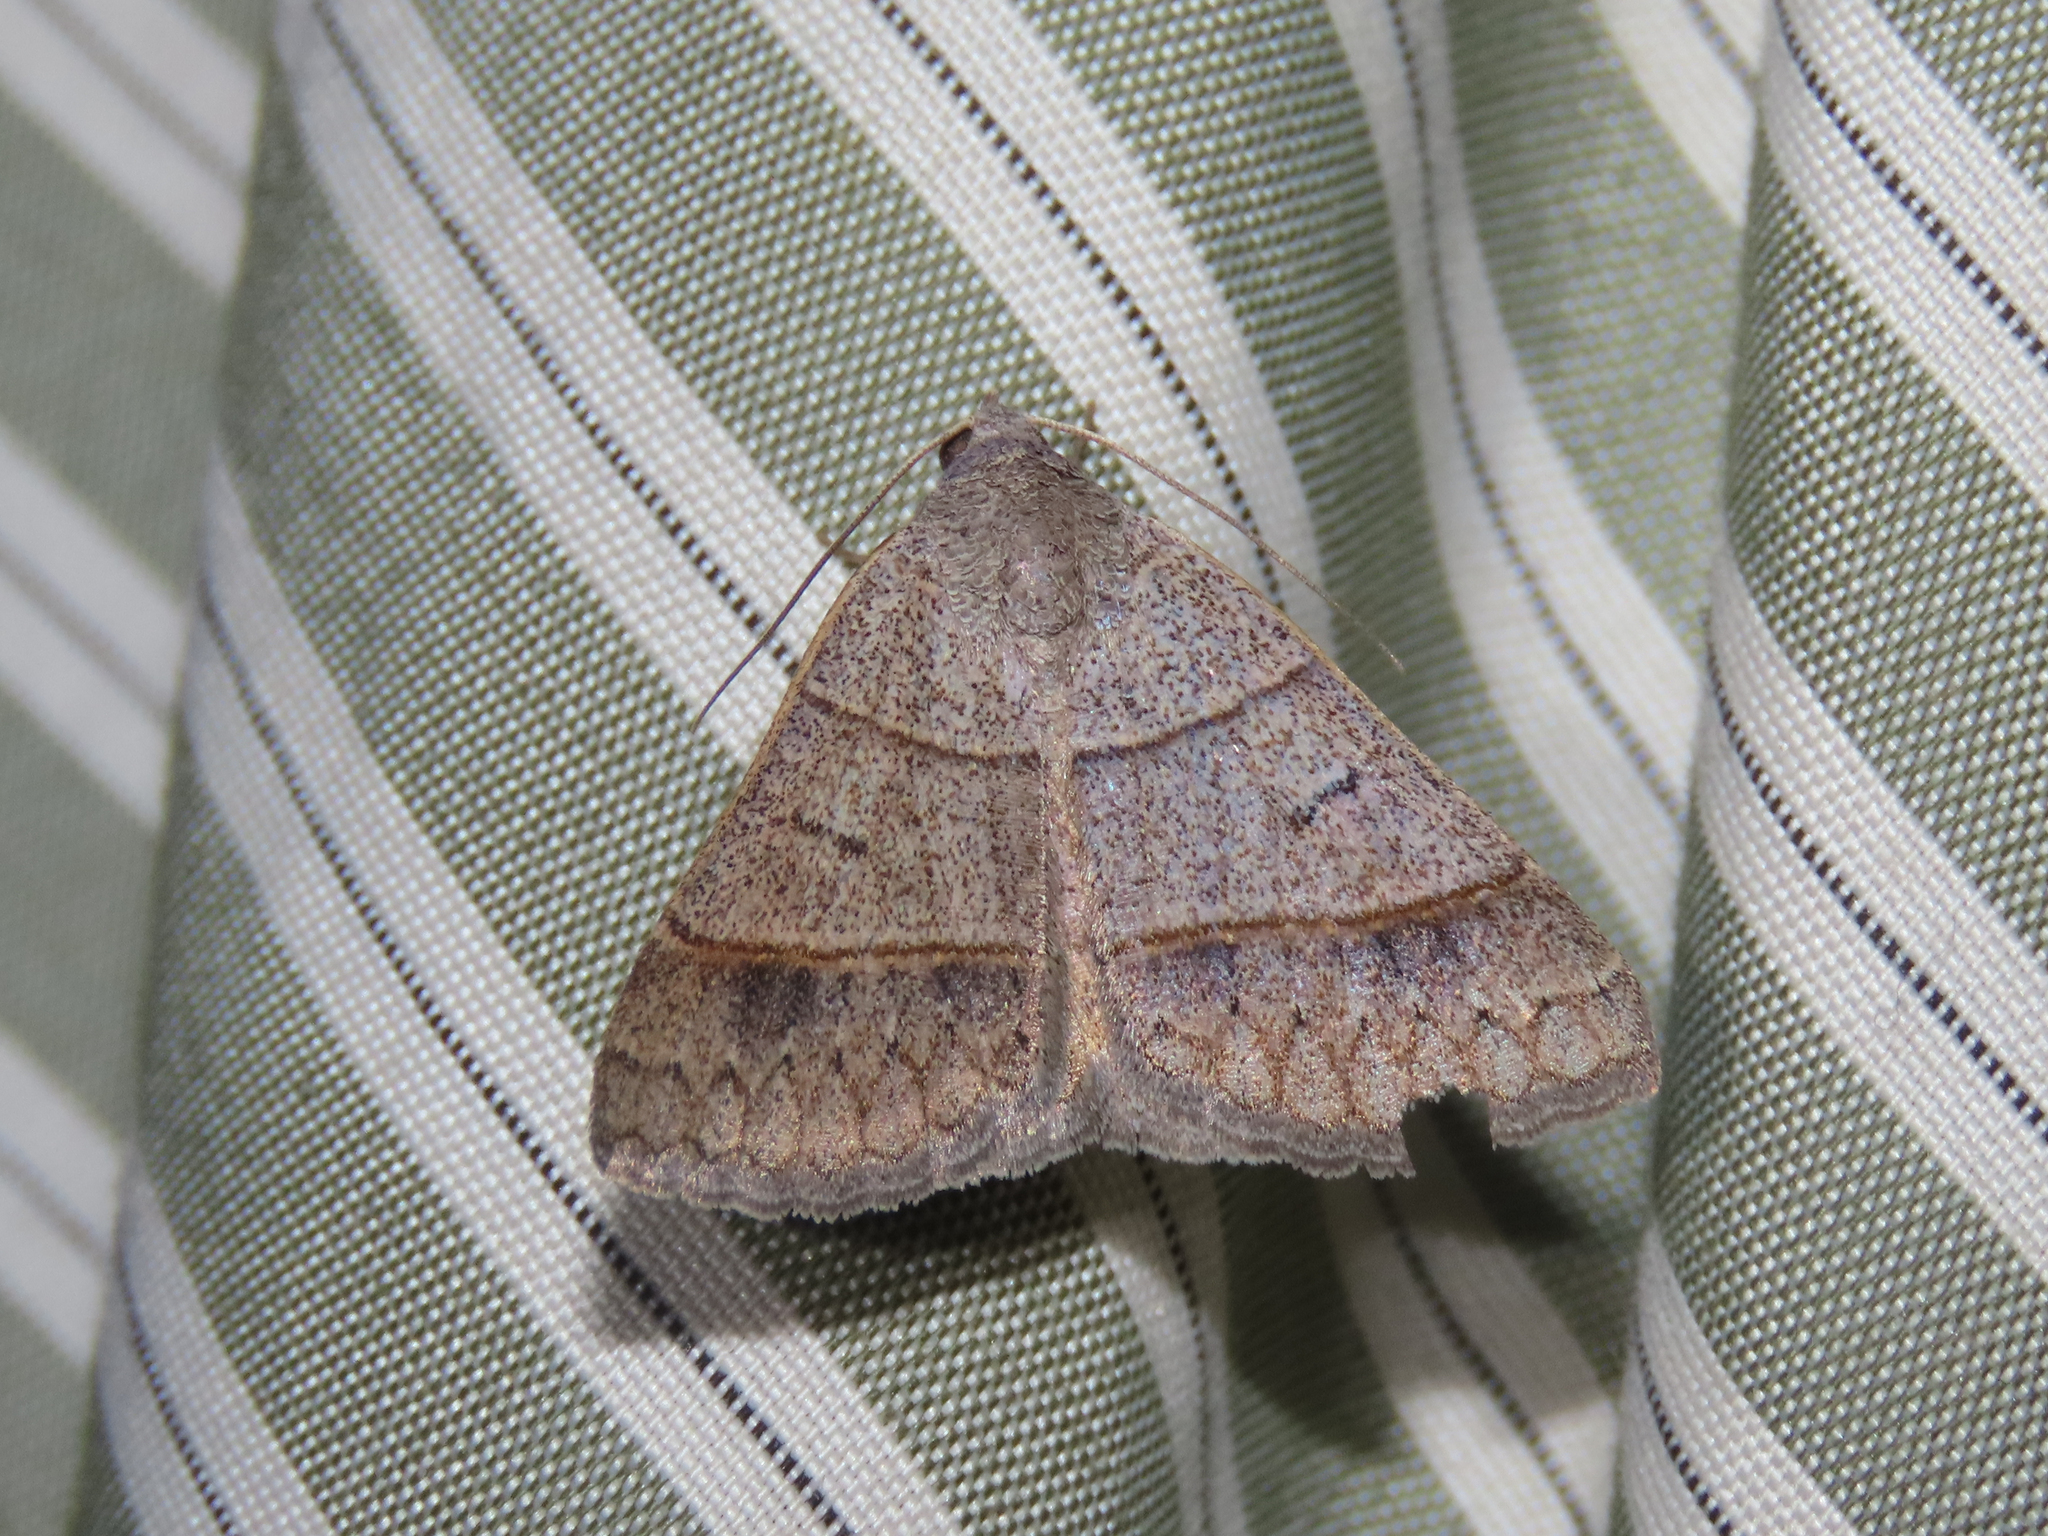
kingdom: Animalia
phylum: Arthropoda
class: Insecta
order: Lepidoptera
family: Erebidae
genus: Ptichodis
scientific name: Ptichodis ovalis
